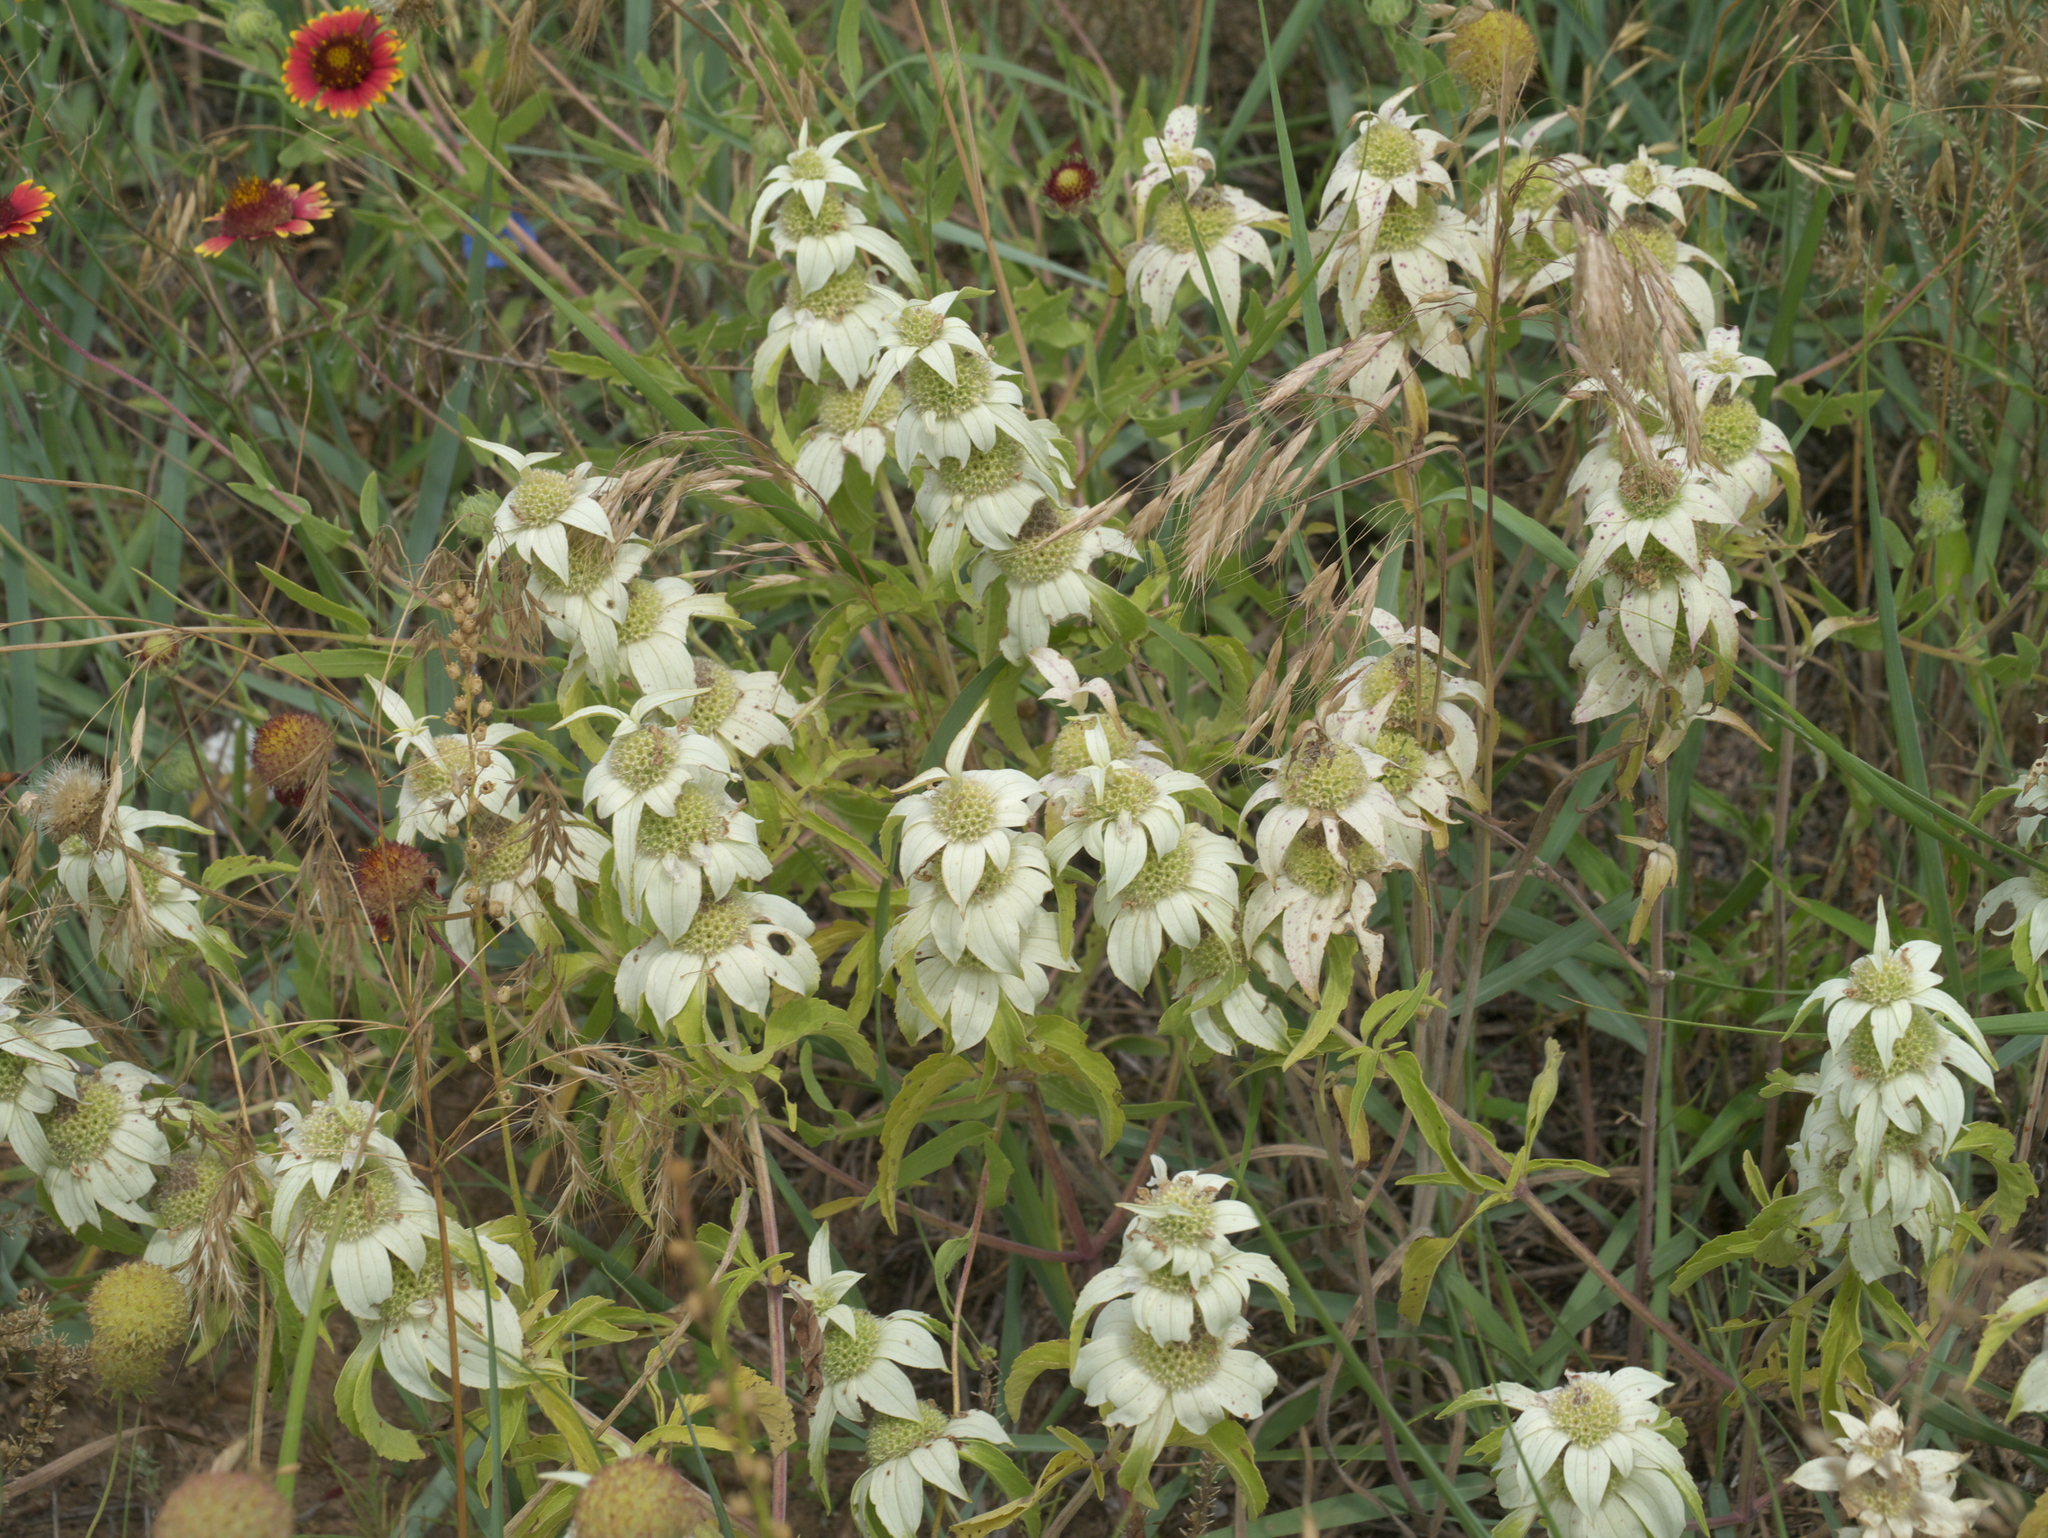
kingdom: Plantae
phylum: Tracheophyta
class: Magnoliopsida
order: Lamiales
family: Lamiaceae
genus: Monarda
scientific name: Monarda punctata
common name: Dotted monarda
